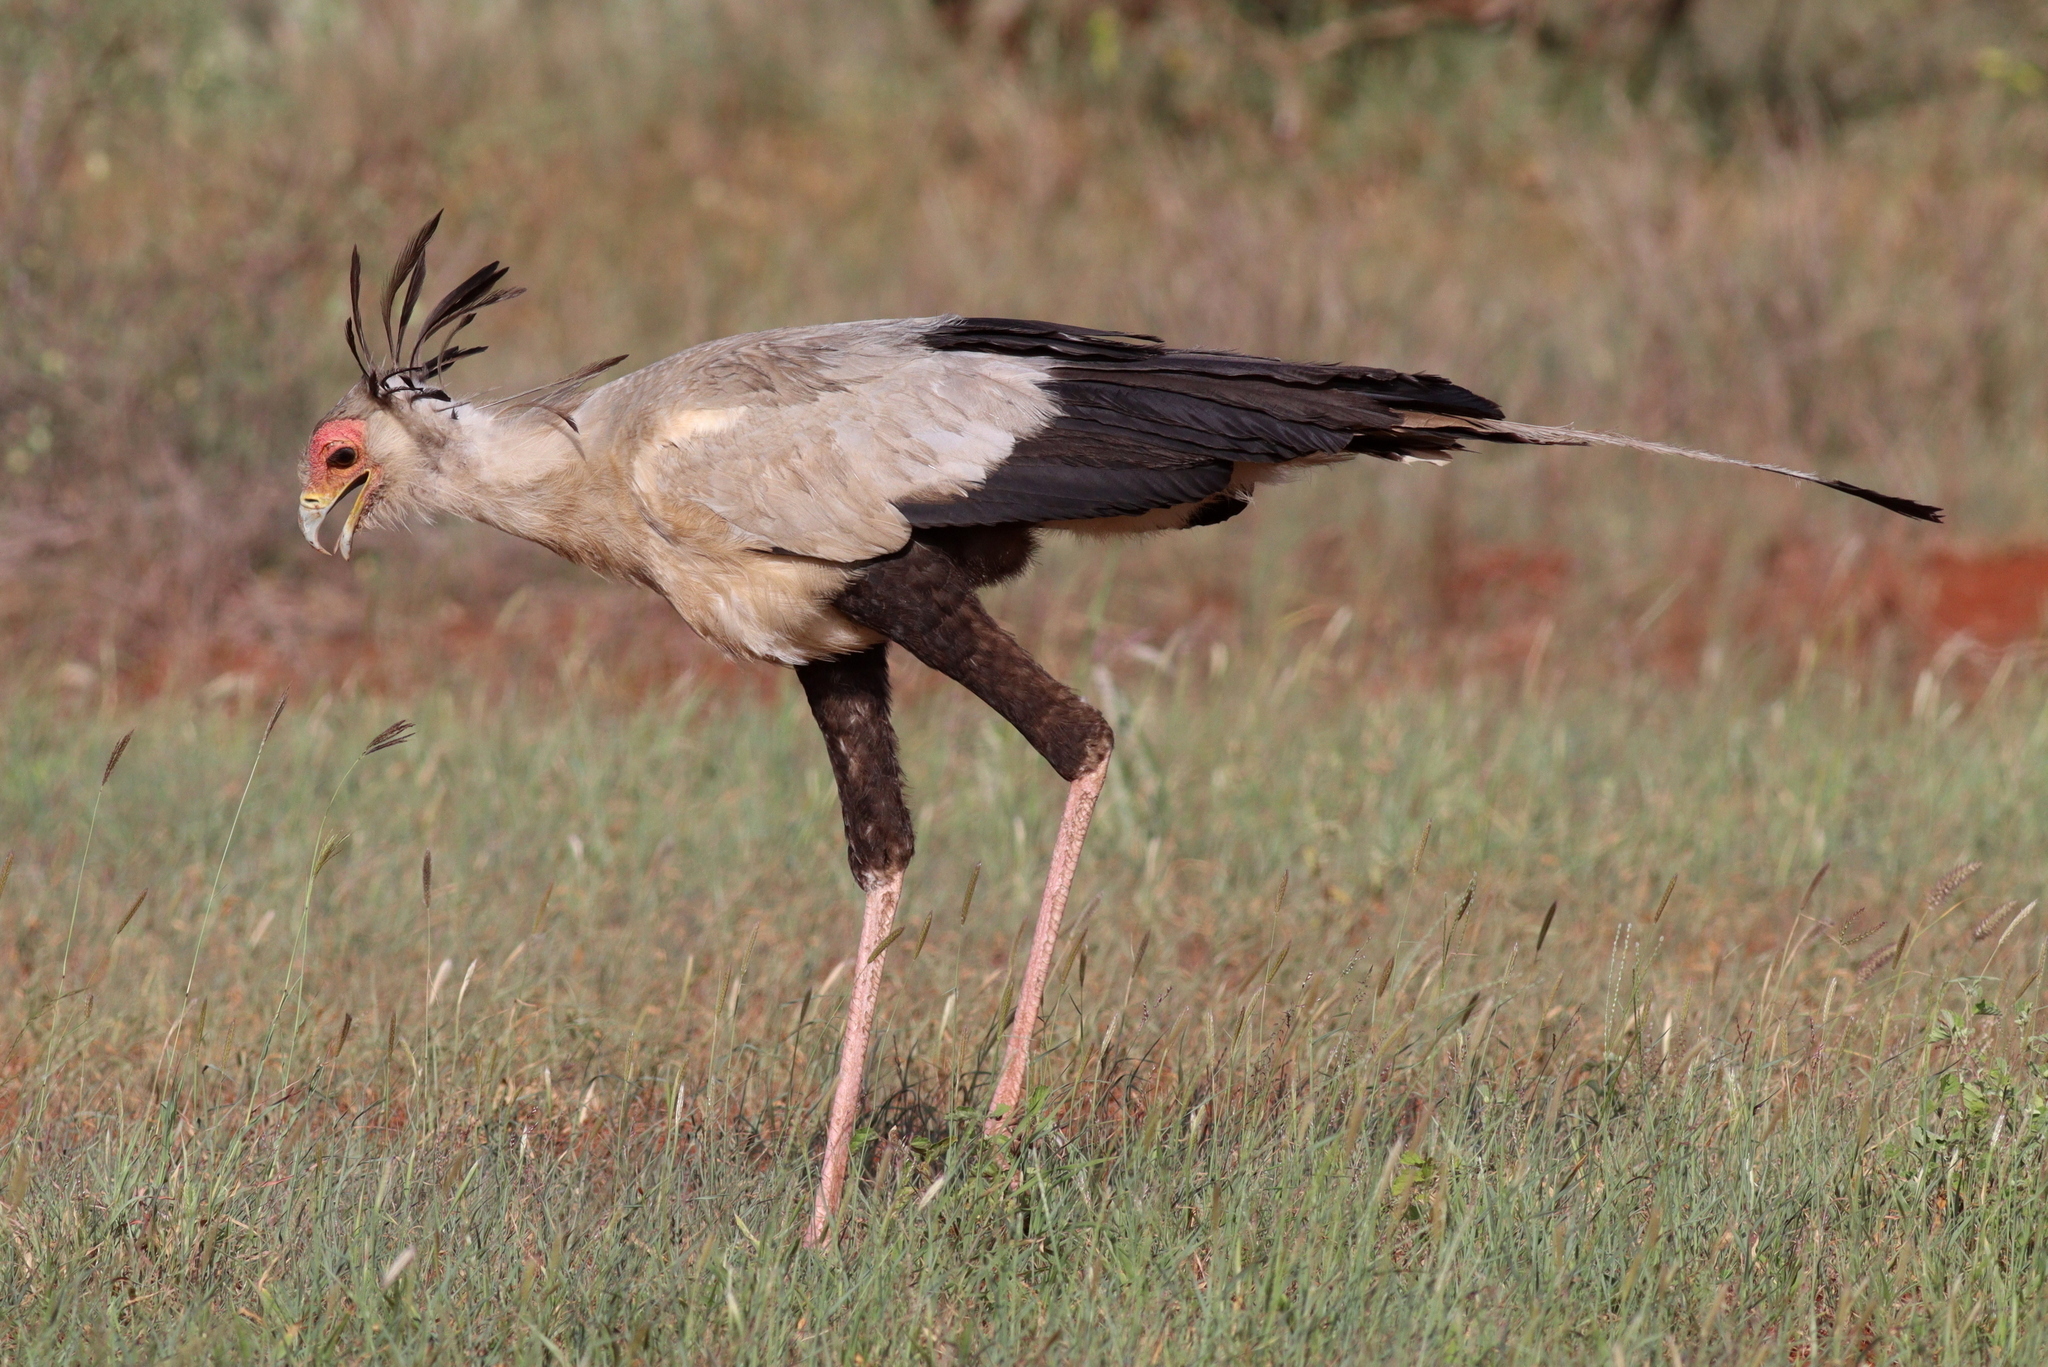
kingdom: Animalia
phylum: Chordata
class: Aves
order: Accipitriformes
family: Sagittariidae
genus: Sagittarius
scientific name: Sagittarius serpentarius
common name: Secretarybird
